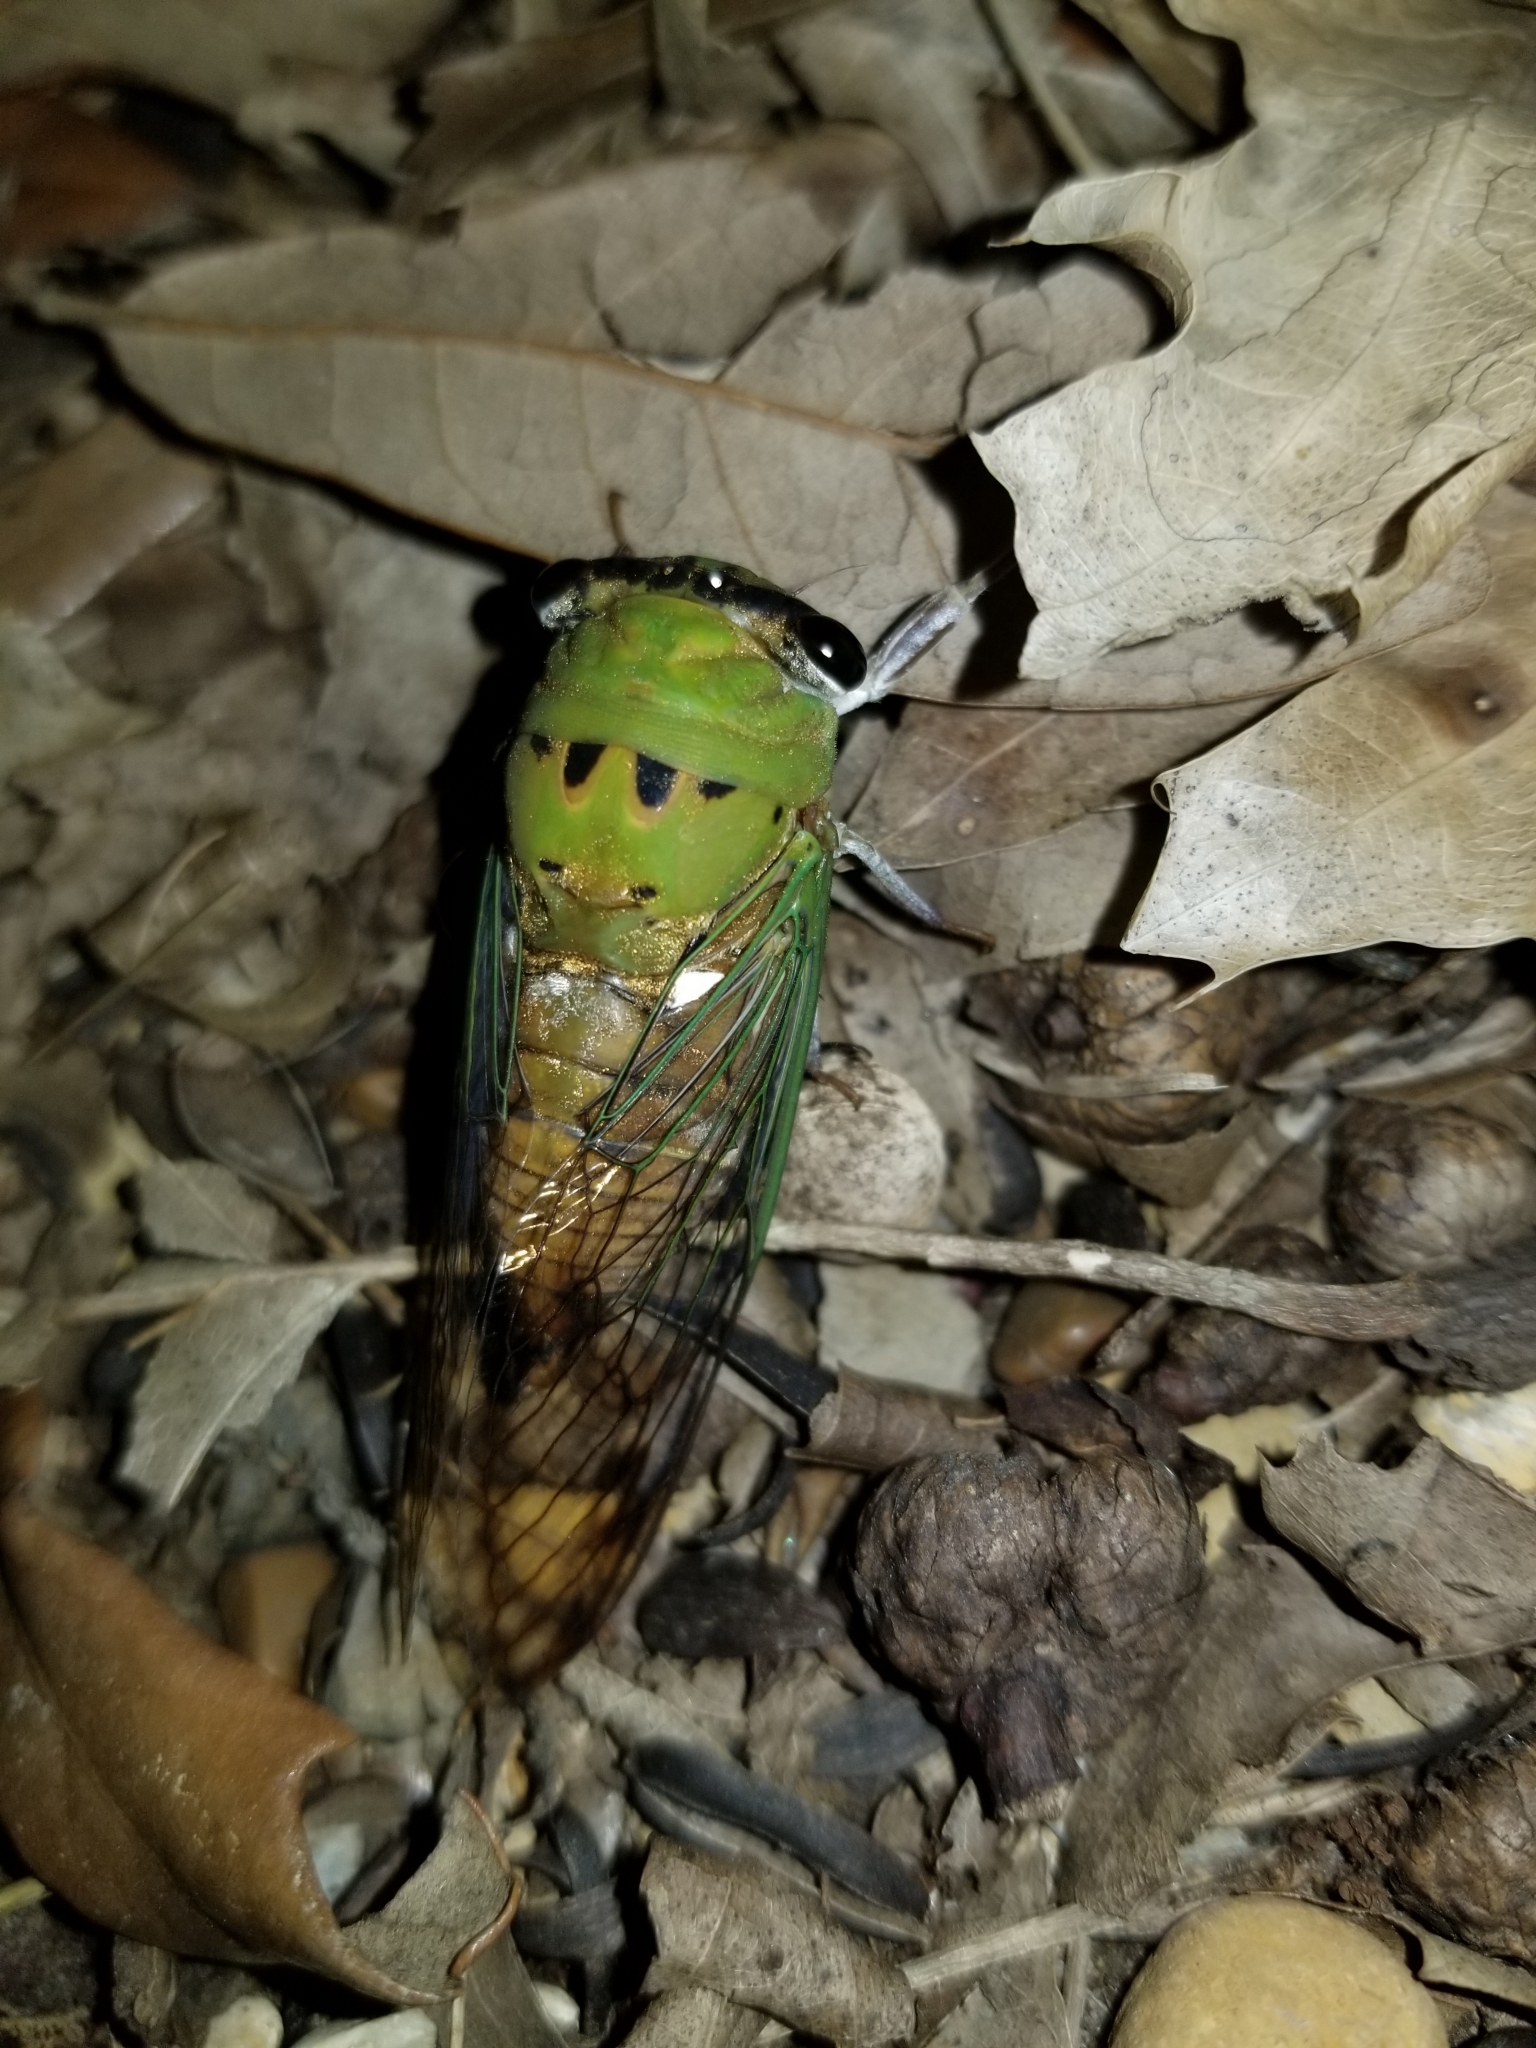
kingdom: Animalia
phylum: Arthropoda
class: Insecta
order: Hemiptera
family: Cicadidae
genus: Neotibicen
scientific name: Neotibicen superbus
